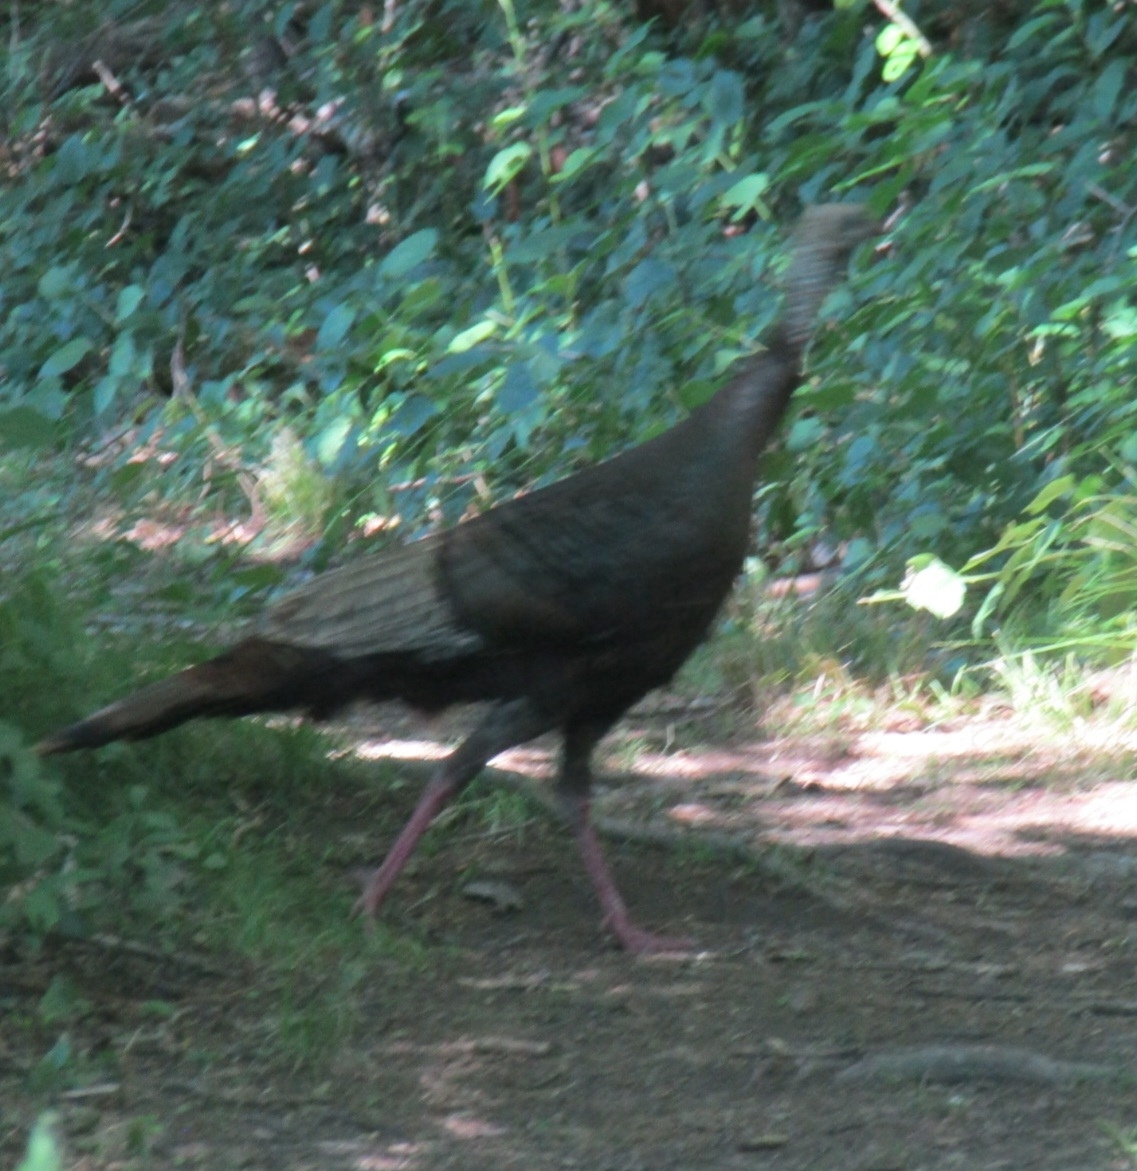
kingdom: Animalia
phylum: Chordata
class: Aves
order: Galliformes
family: Phasianidae
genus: Meleagris
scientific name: Meleagris gallopavo
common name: Wild turkey
